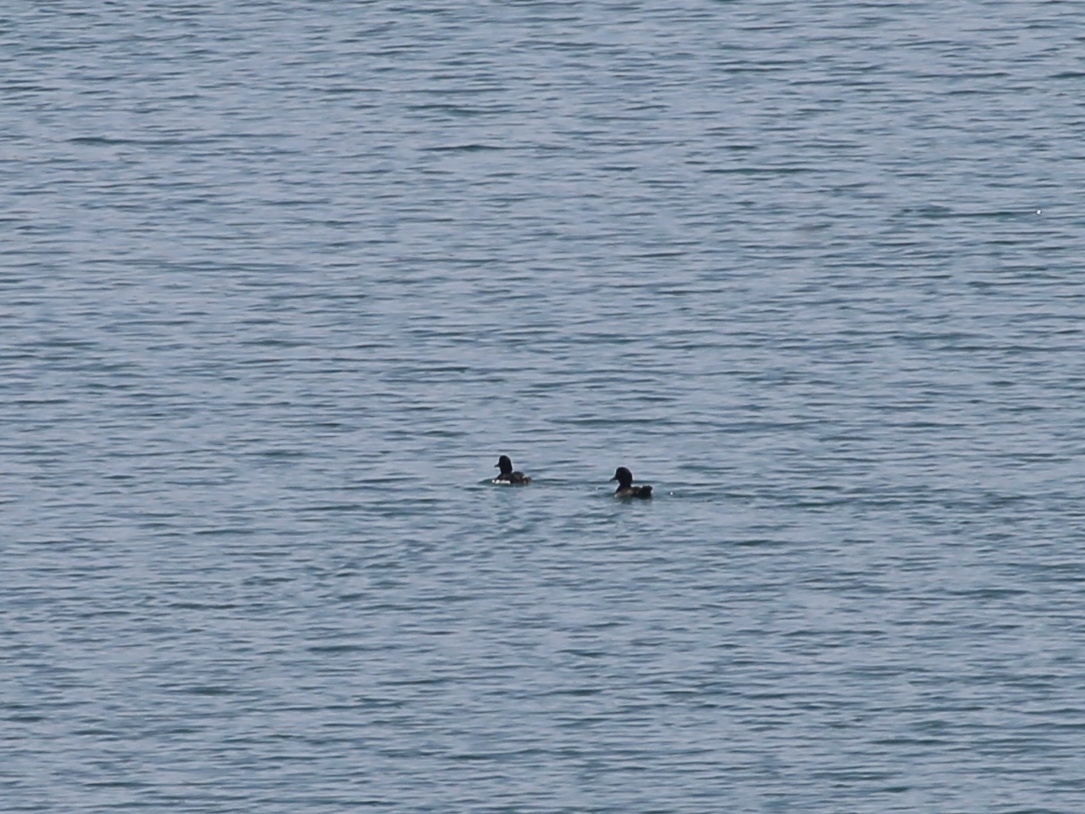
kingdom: Animalia
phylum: Chordata
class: Aves
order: Anseriformes
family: Anatidae
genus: Aythya
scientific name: Aythya fuligula
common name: Tufted duck
